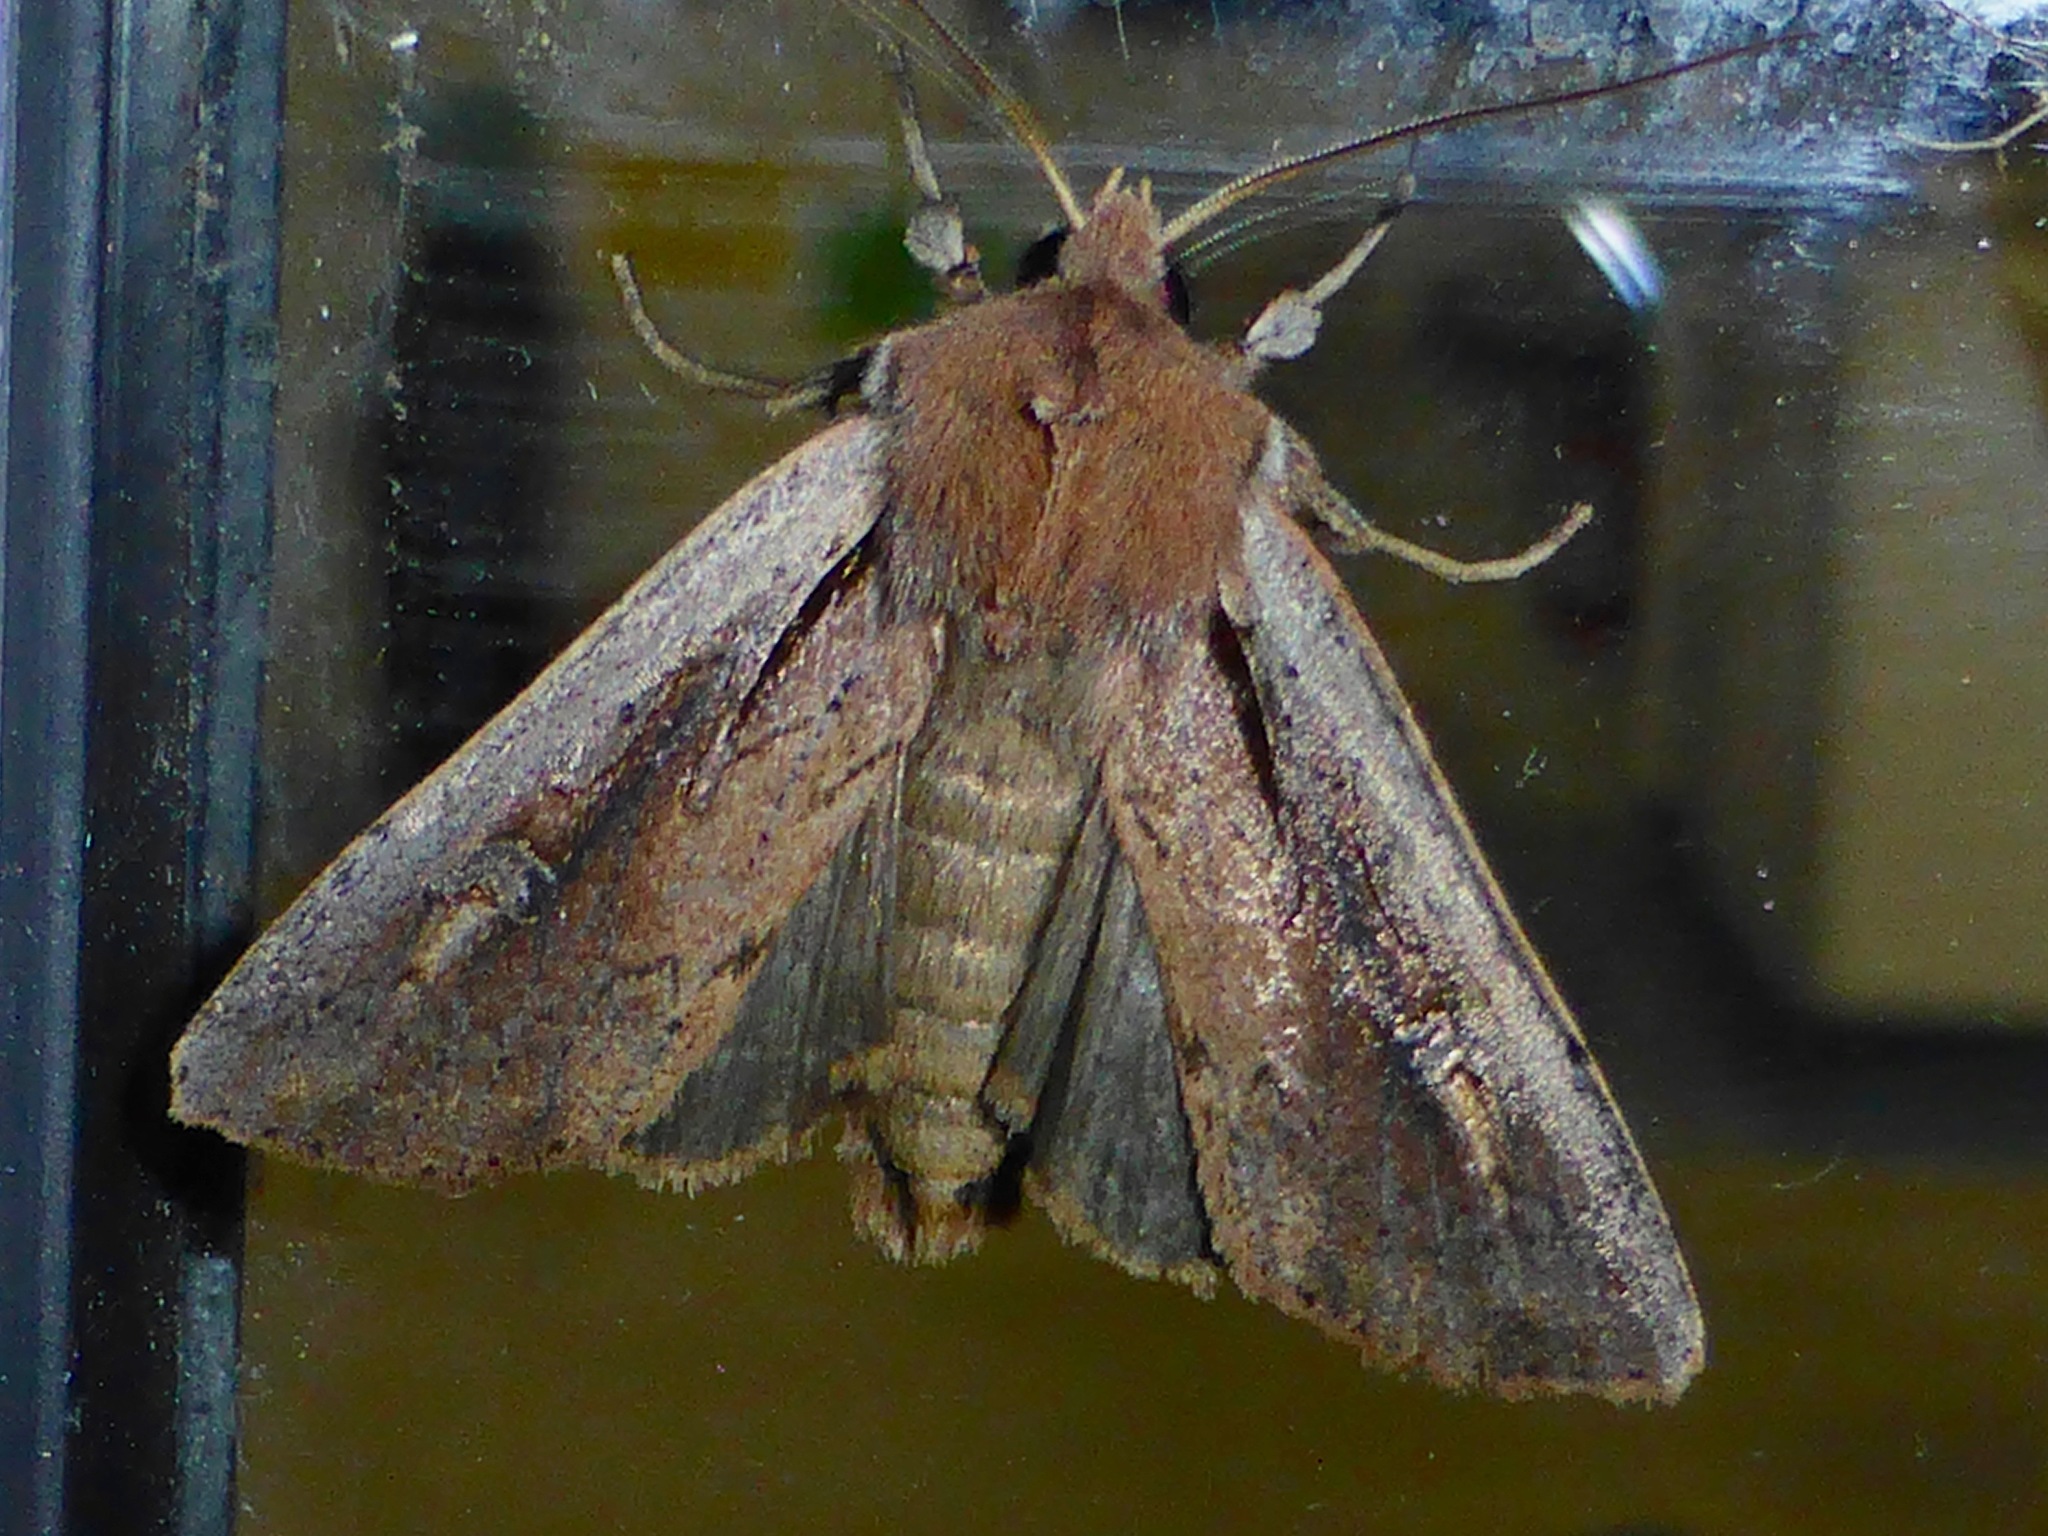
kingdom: Animalia
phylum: Arthropoda
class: Insecta
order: Lepidoptera
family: Noctuidae
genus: Ichneutica
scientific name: Ichneutica atristriga
